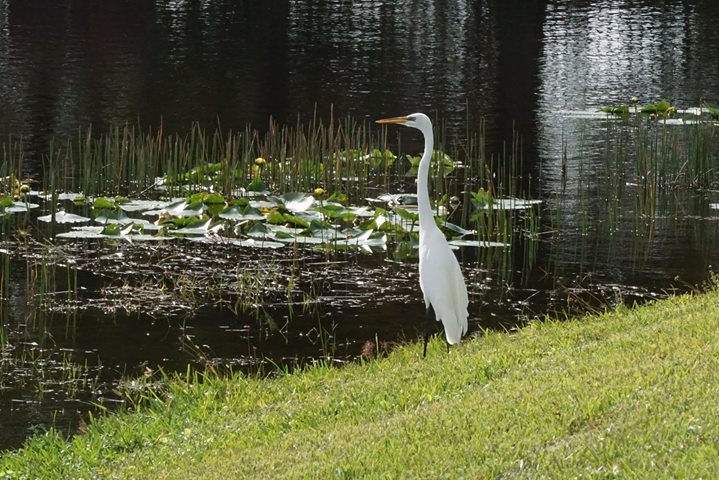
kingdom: Animalia
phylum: Chordata
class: Aves
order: Pelecaniformes
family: Ardeidae
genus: Ardea
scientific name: Ardea alba
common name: Great egret
